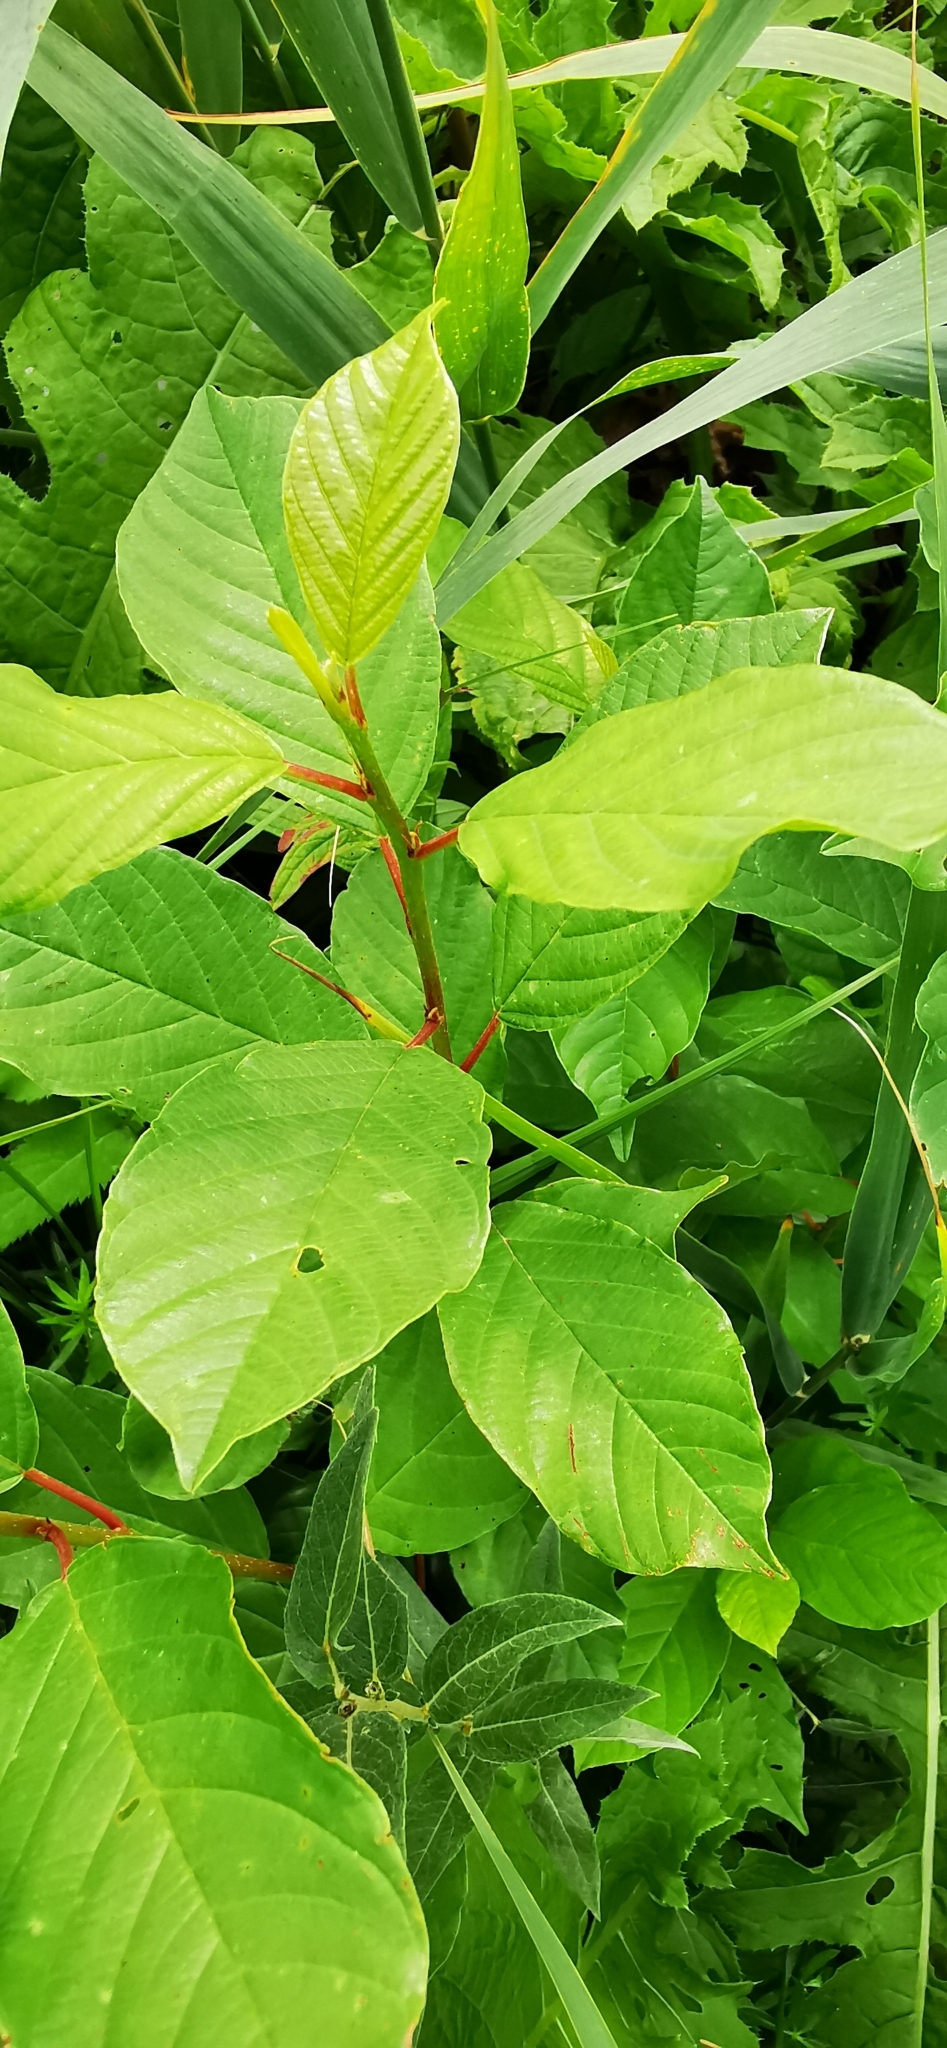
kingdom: Plantae
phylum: Tracheophyta
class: Magnoliopsida
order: Rosales
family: Rhamnaceae
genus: Frangula
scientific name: Frangula alnus
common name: Alder buckthorn
